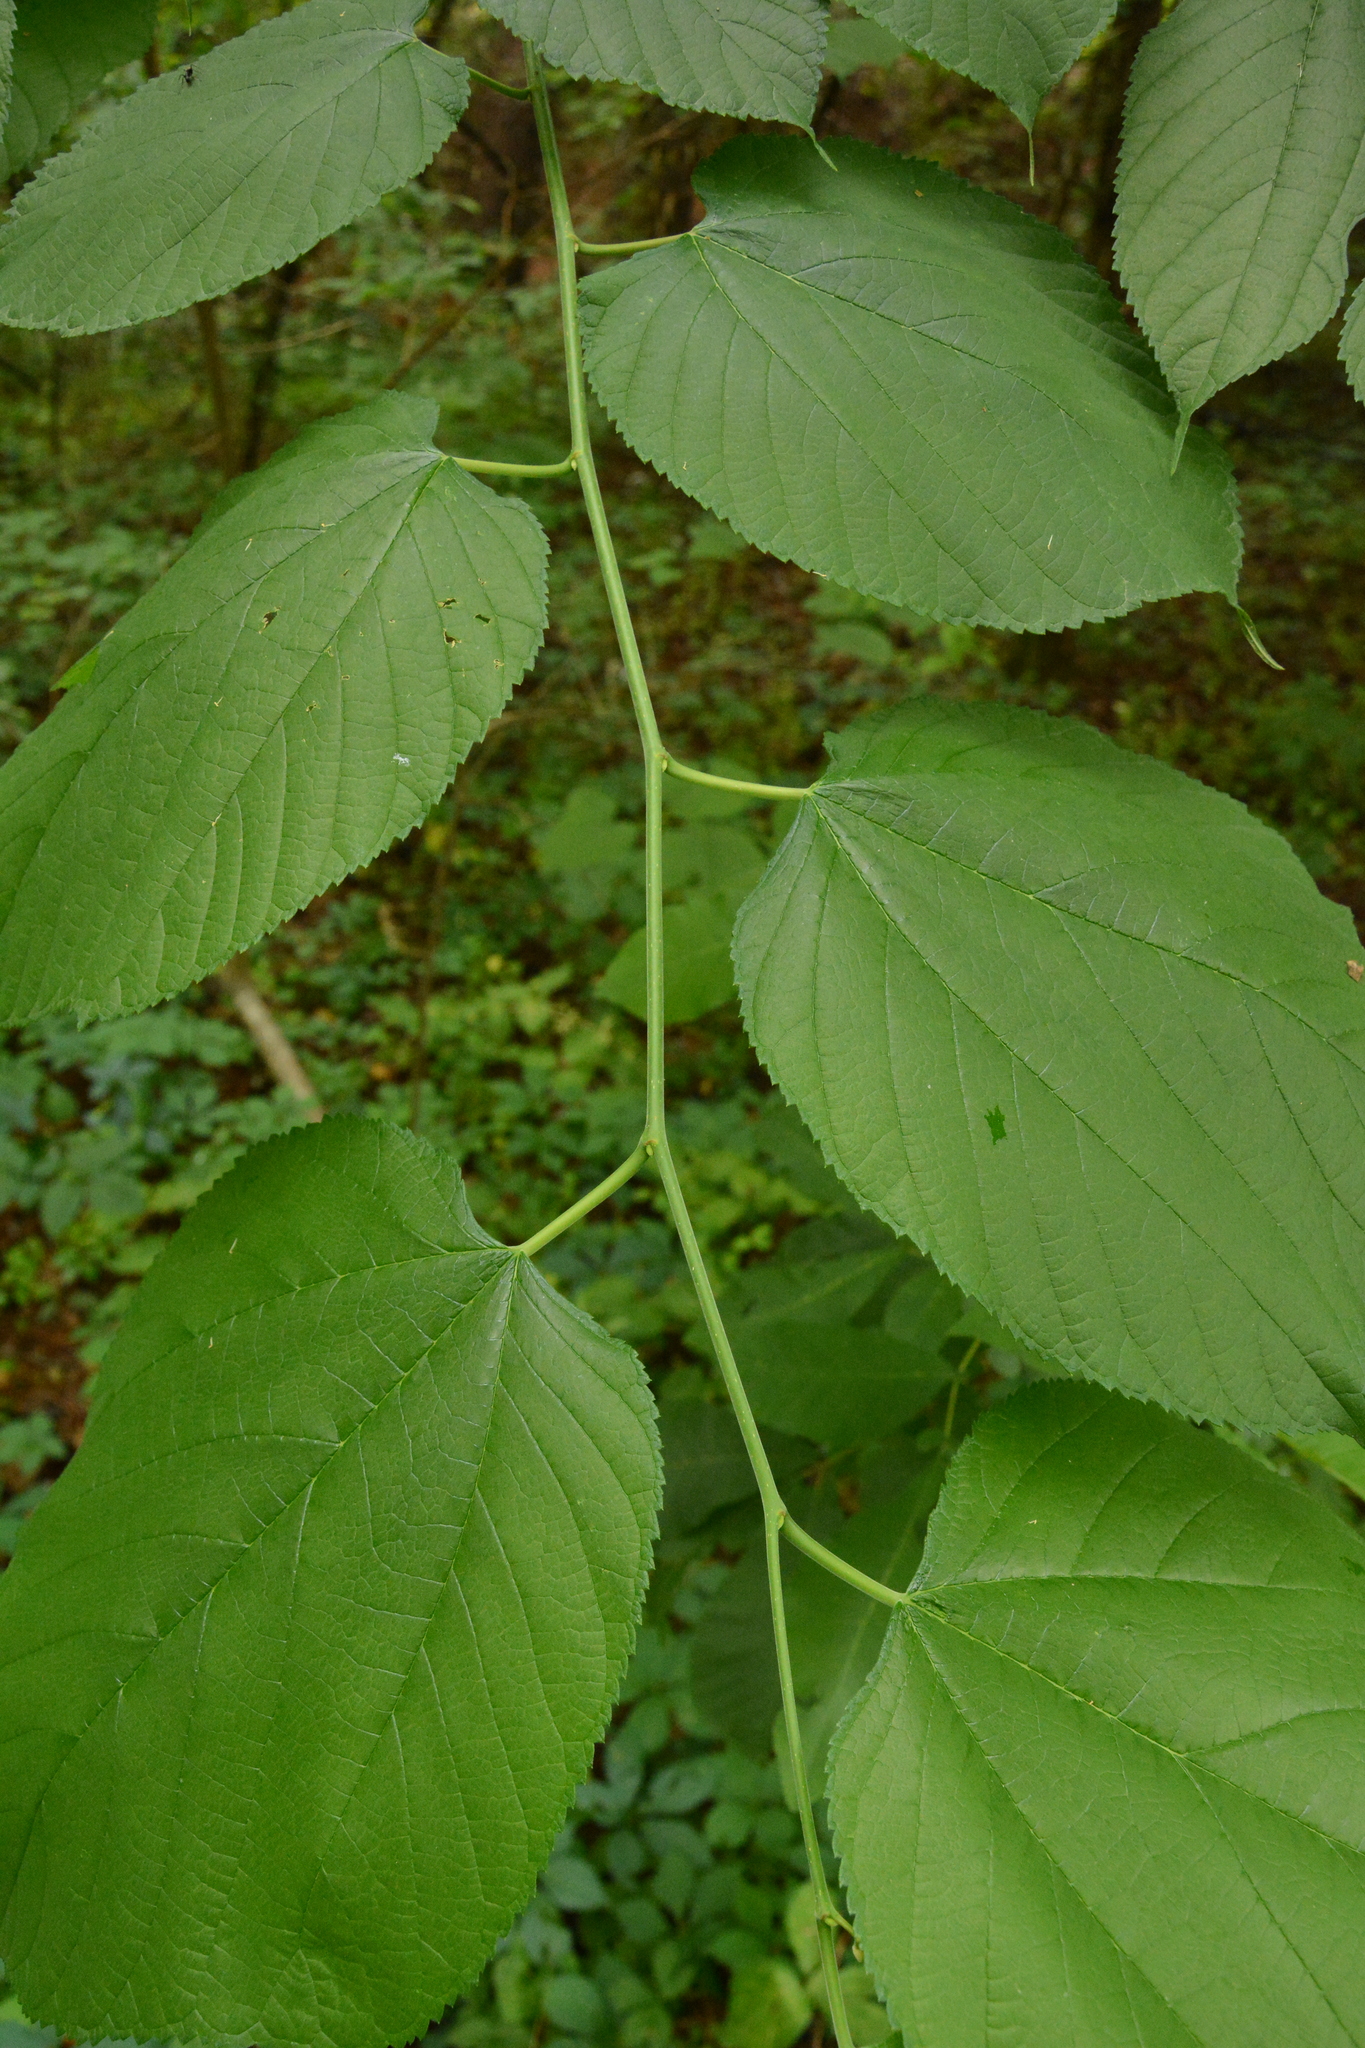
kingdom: Plantae
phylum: Tracheophyta
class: Magnoliopsida
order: Rosales
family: Moraceae
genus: Morus
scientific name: Morus rubra
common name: Red mulberry
